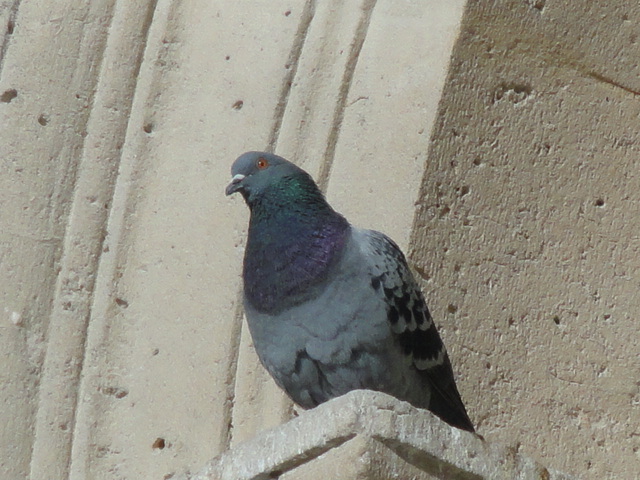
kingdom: Animalia
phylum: Chordata
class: Aves
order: Columbiformes
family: Columbidae
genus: Columba
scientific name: Columba livia
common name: Rock pigeon
